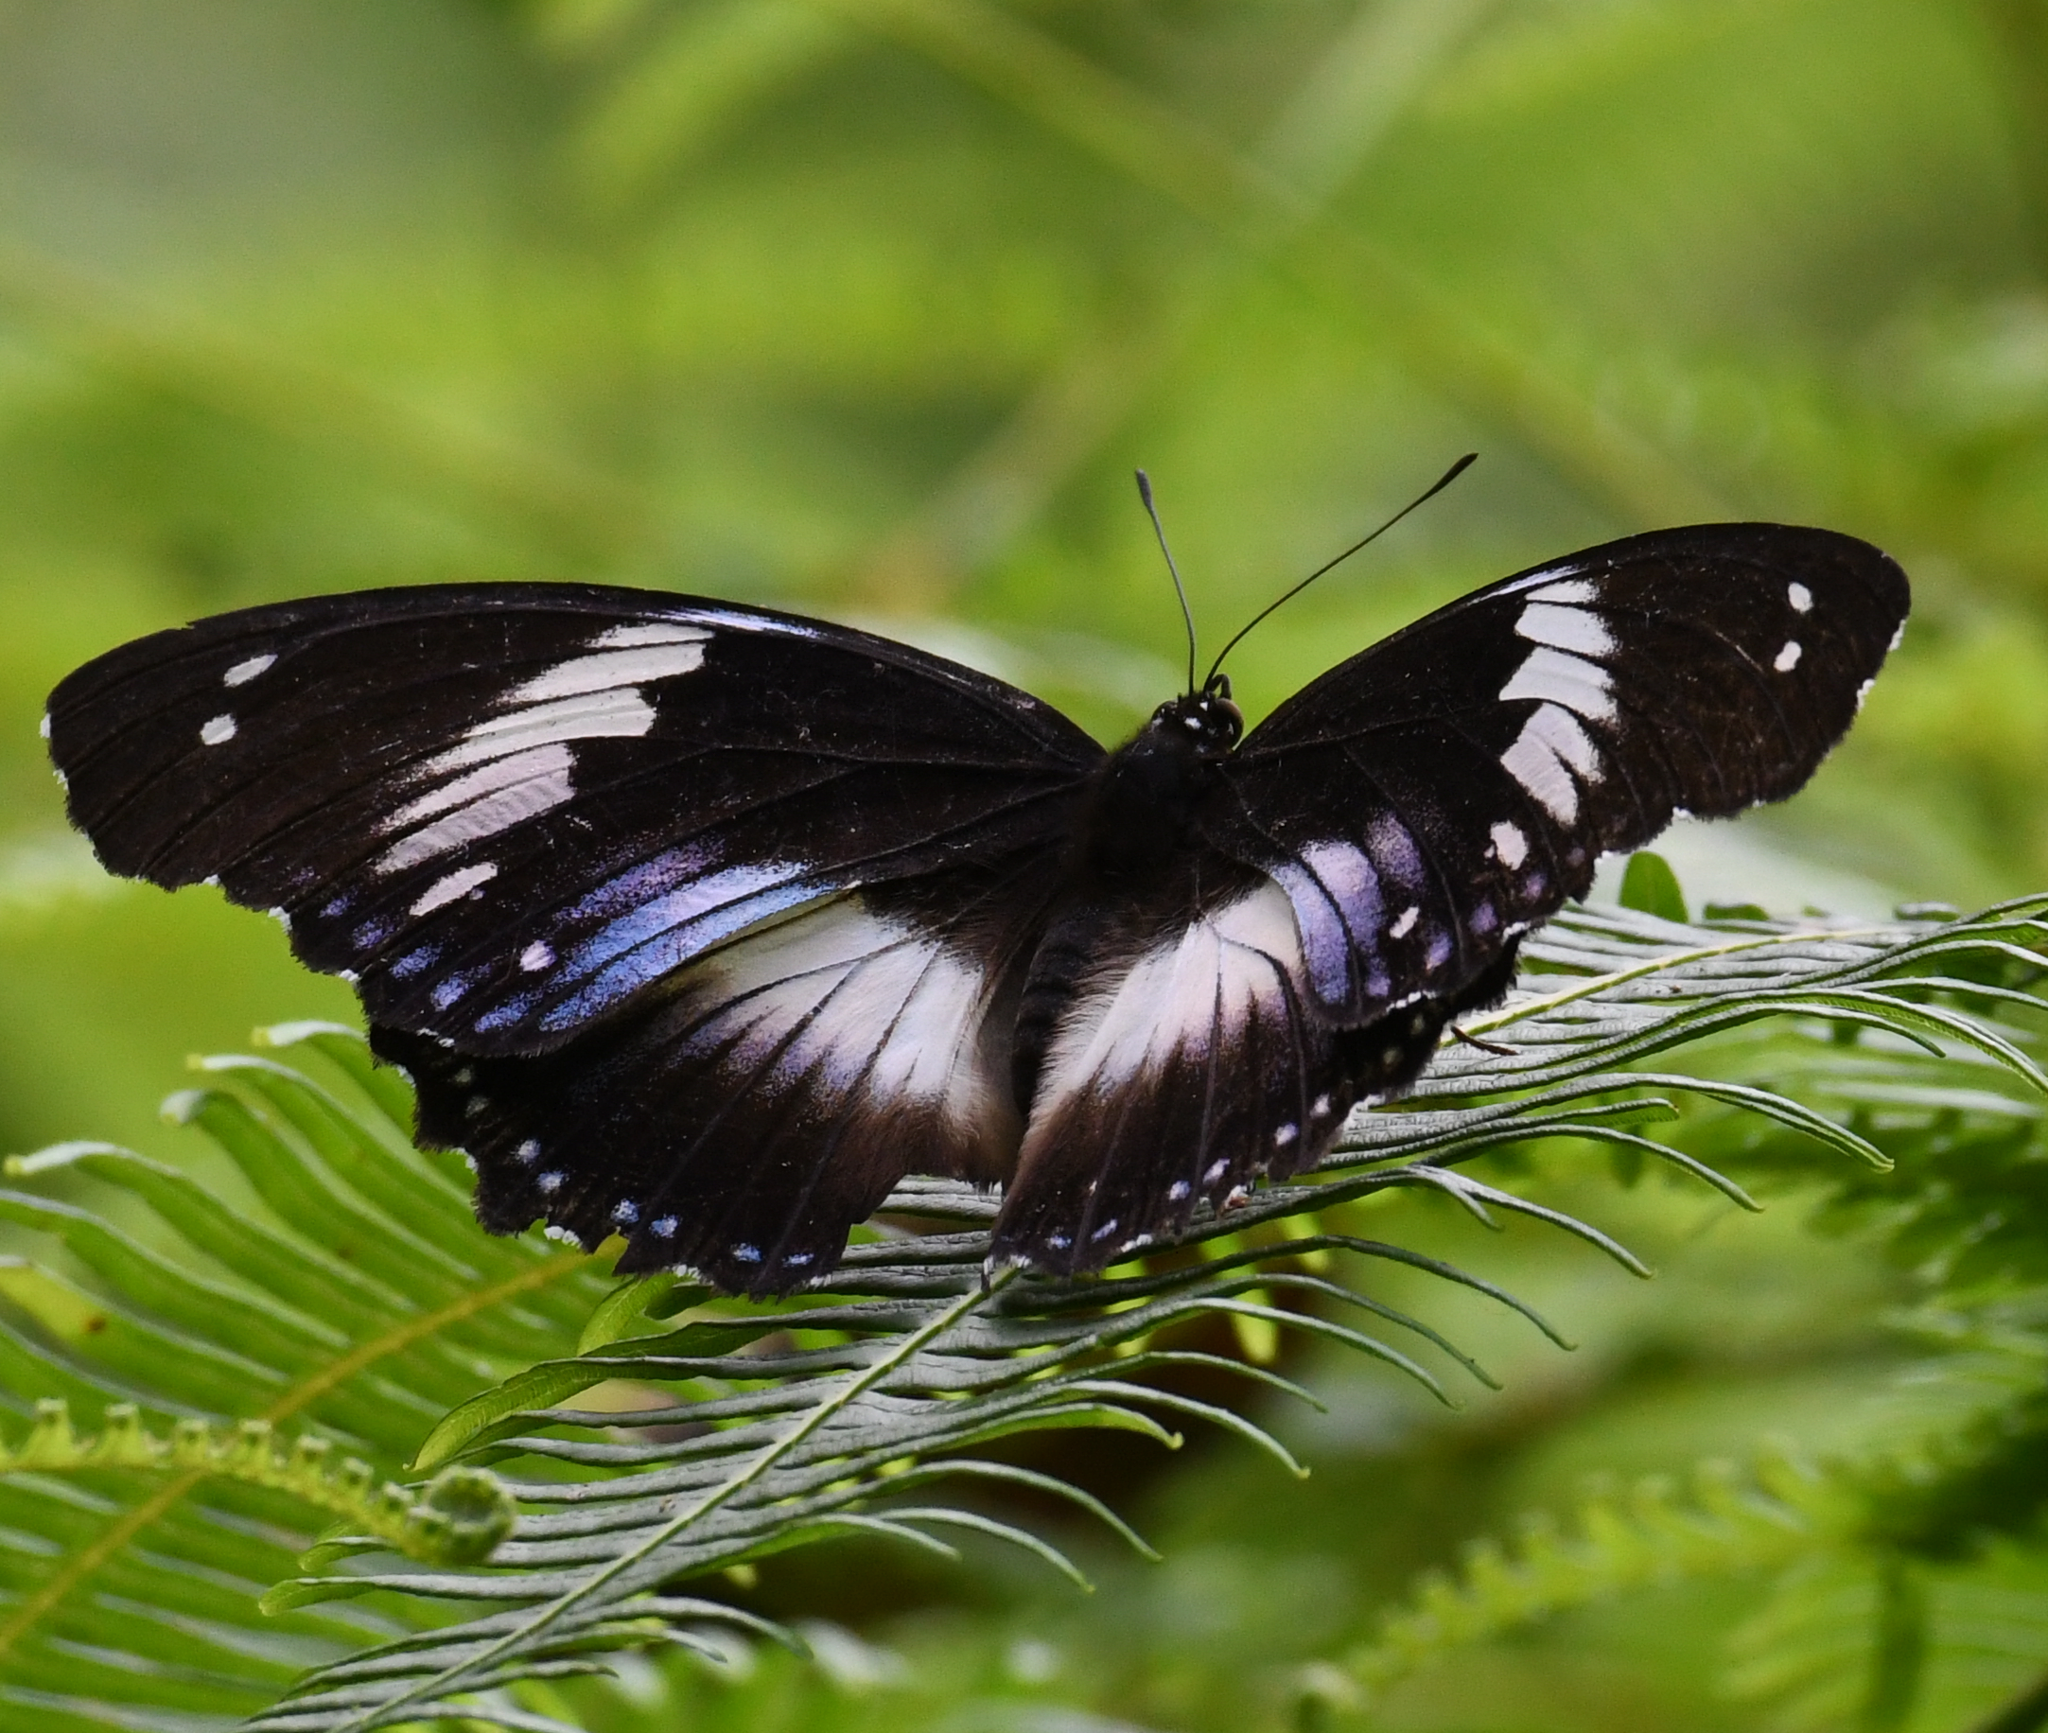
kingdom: Animalia
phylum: Arthropoda
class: Insecta
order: Lepidoptera
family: Nymphalidae
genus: Hypolimnas
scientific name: Hypolimnas salmacis
